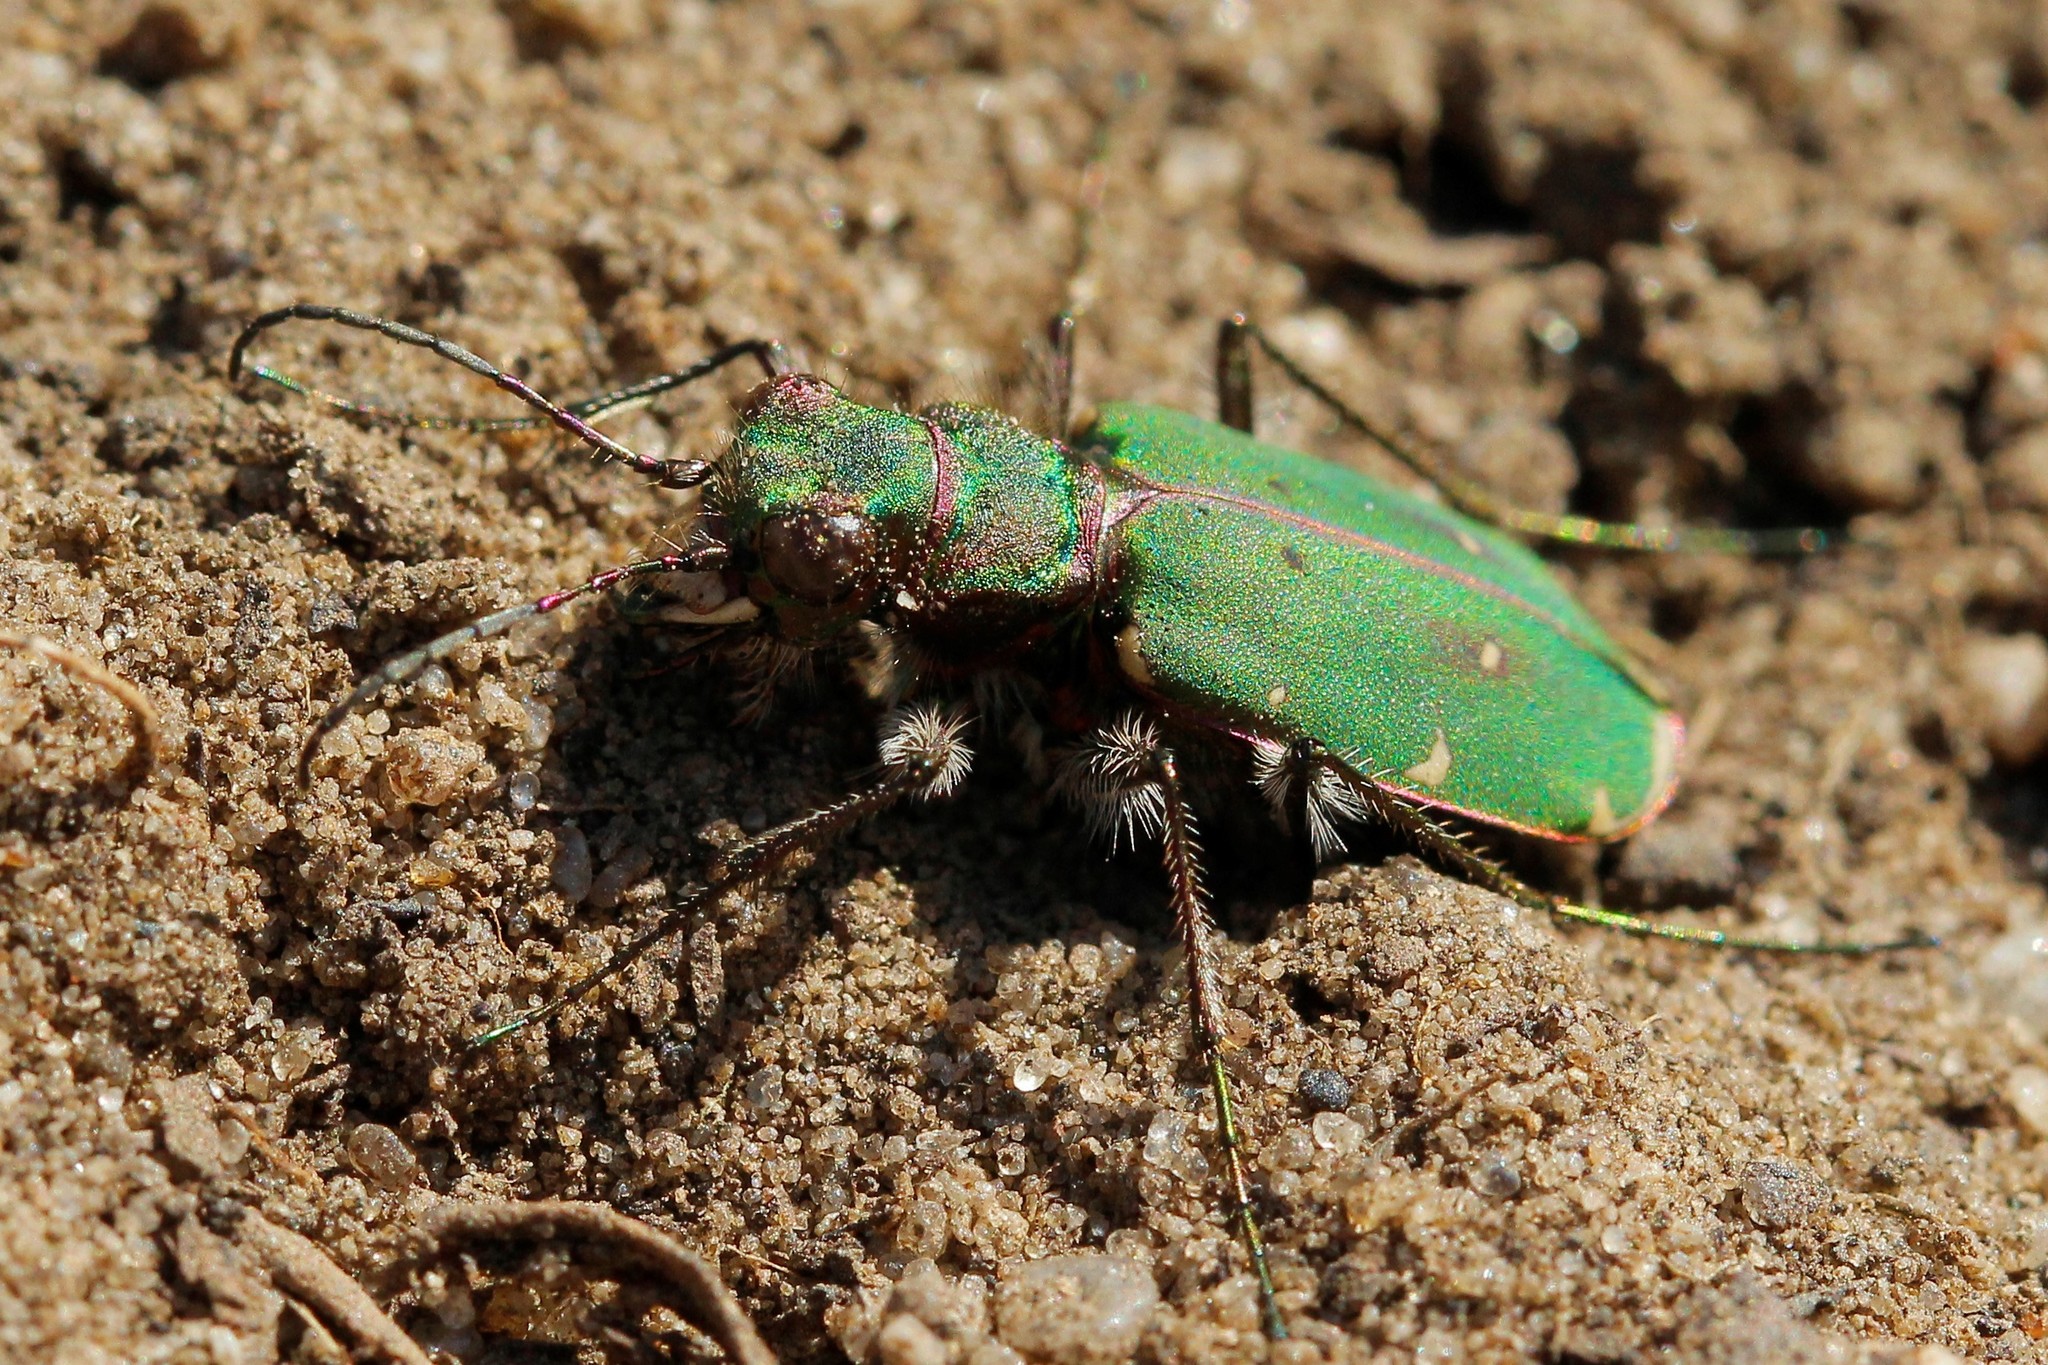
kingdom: Animalia
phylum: Arthropoda
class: Insecta
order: Coleoptera
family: Carabidae
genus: Cicindela
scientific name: Cicindela campestris
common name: Common tiger beetle
